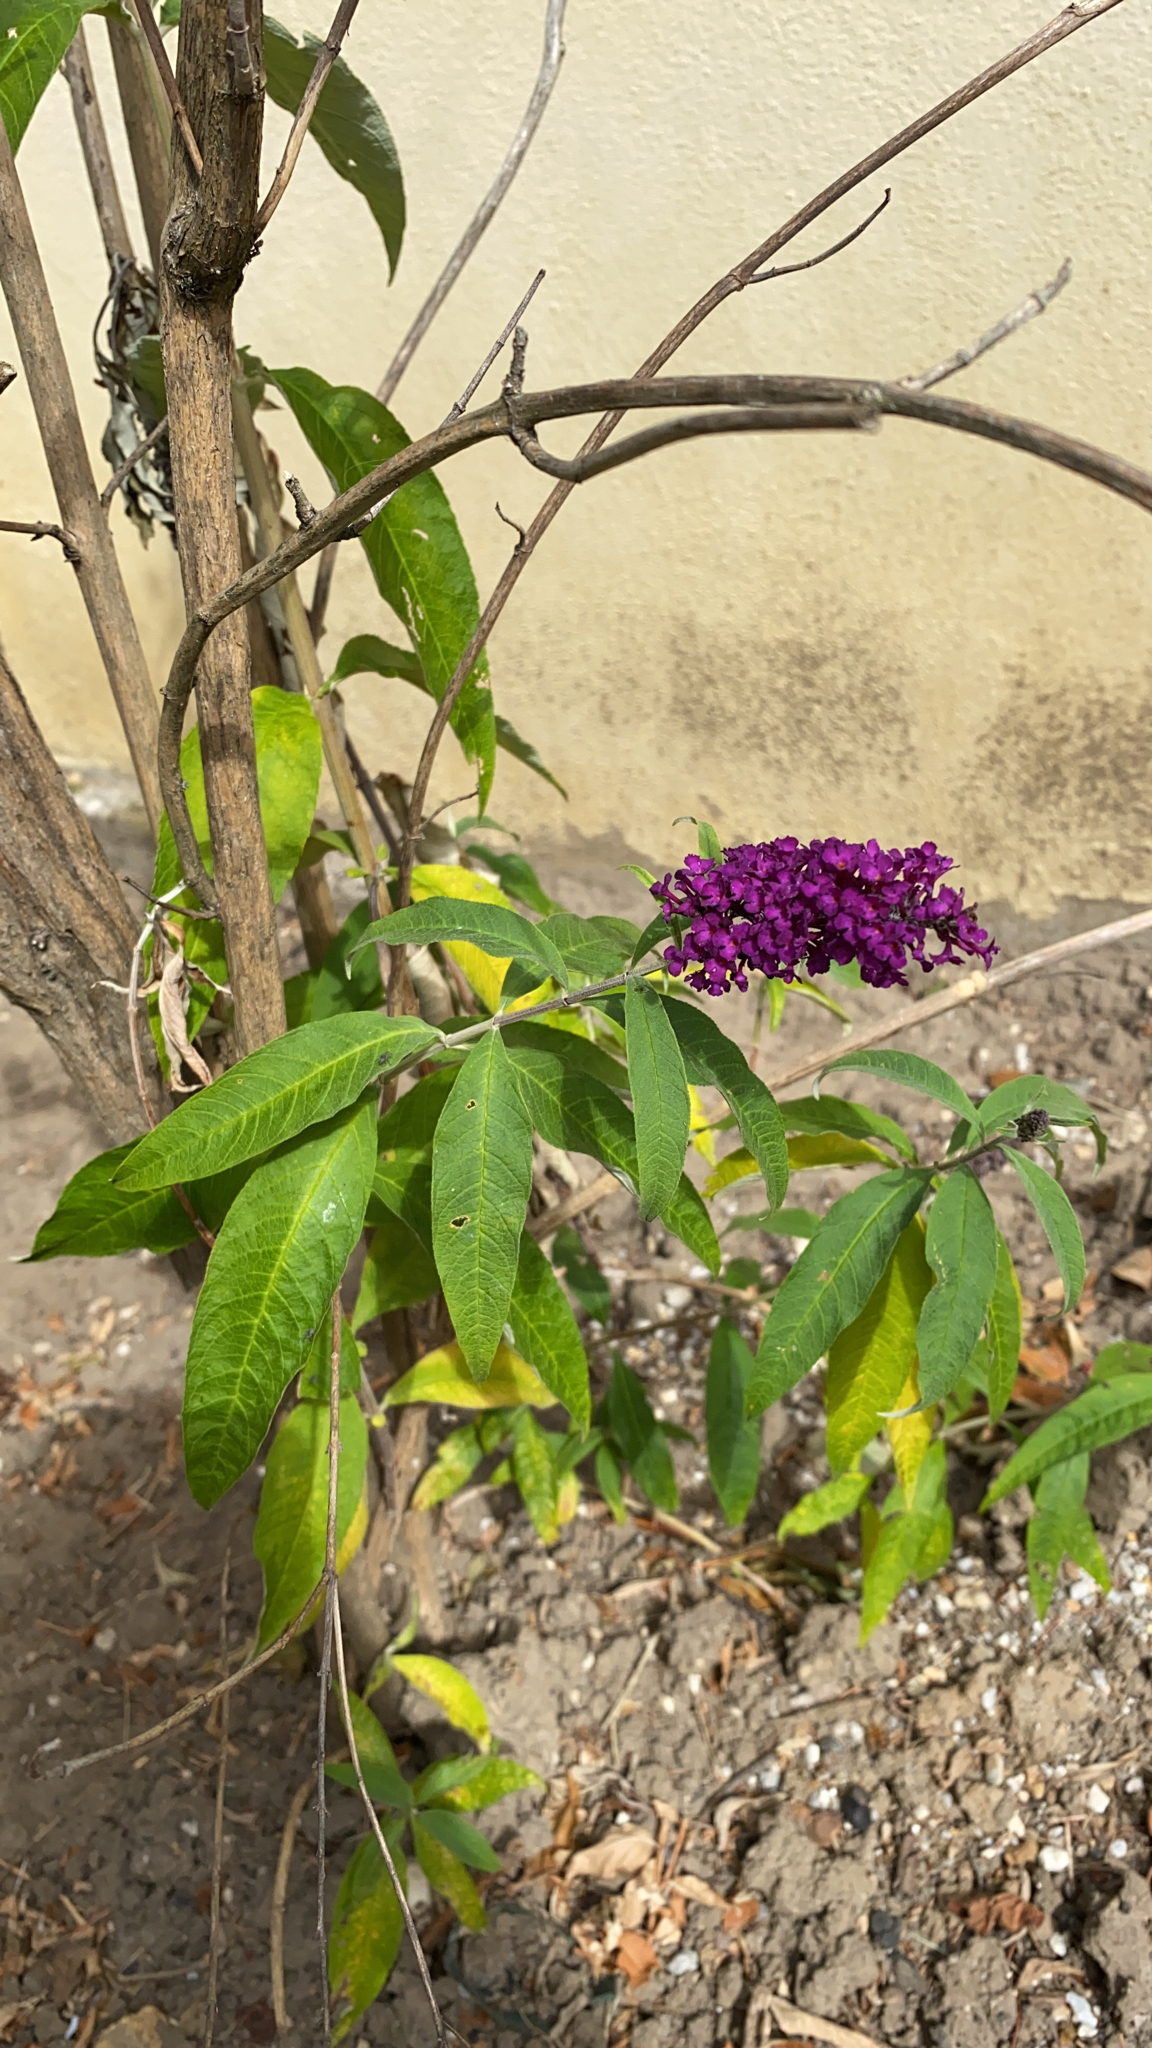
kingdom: Plantae
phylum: Tracheophyta
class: Magnoliopsida
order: Lamiales
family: Scrophulariaceae
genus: Buddleja
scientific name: Buddleja davidii
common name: Butterfly-bush
